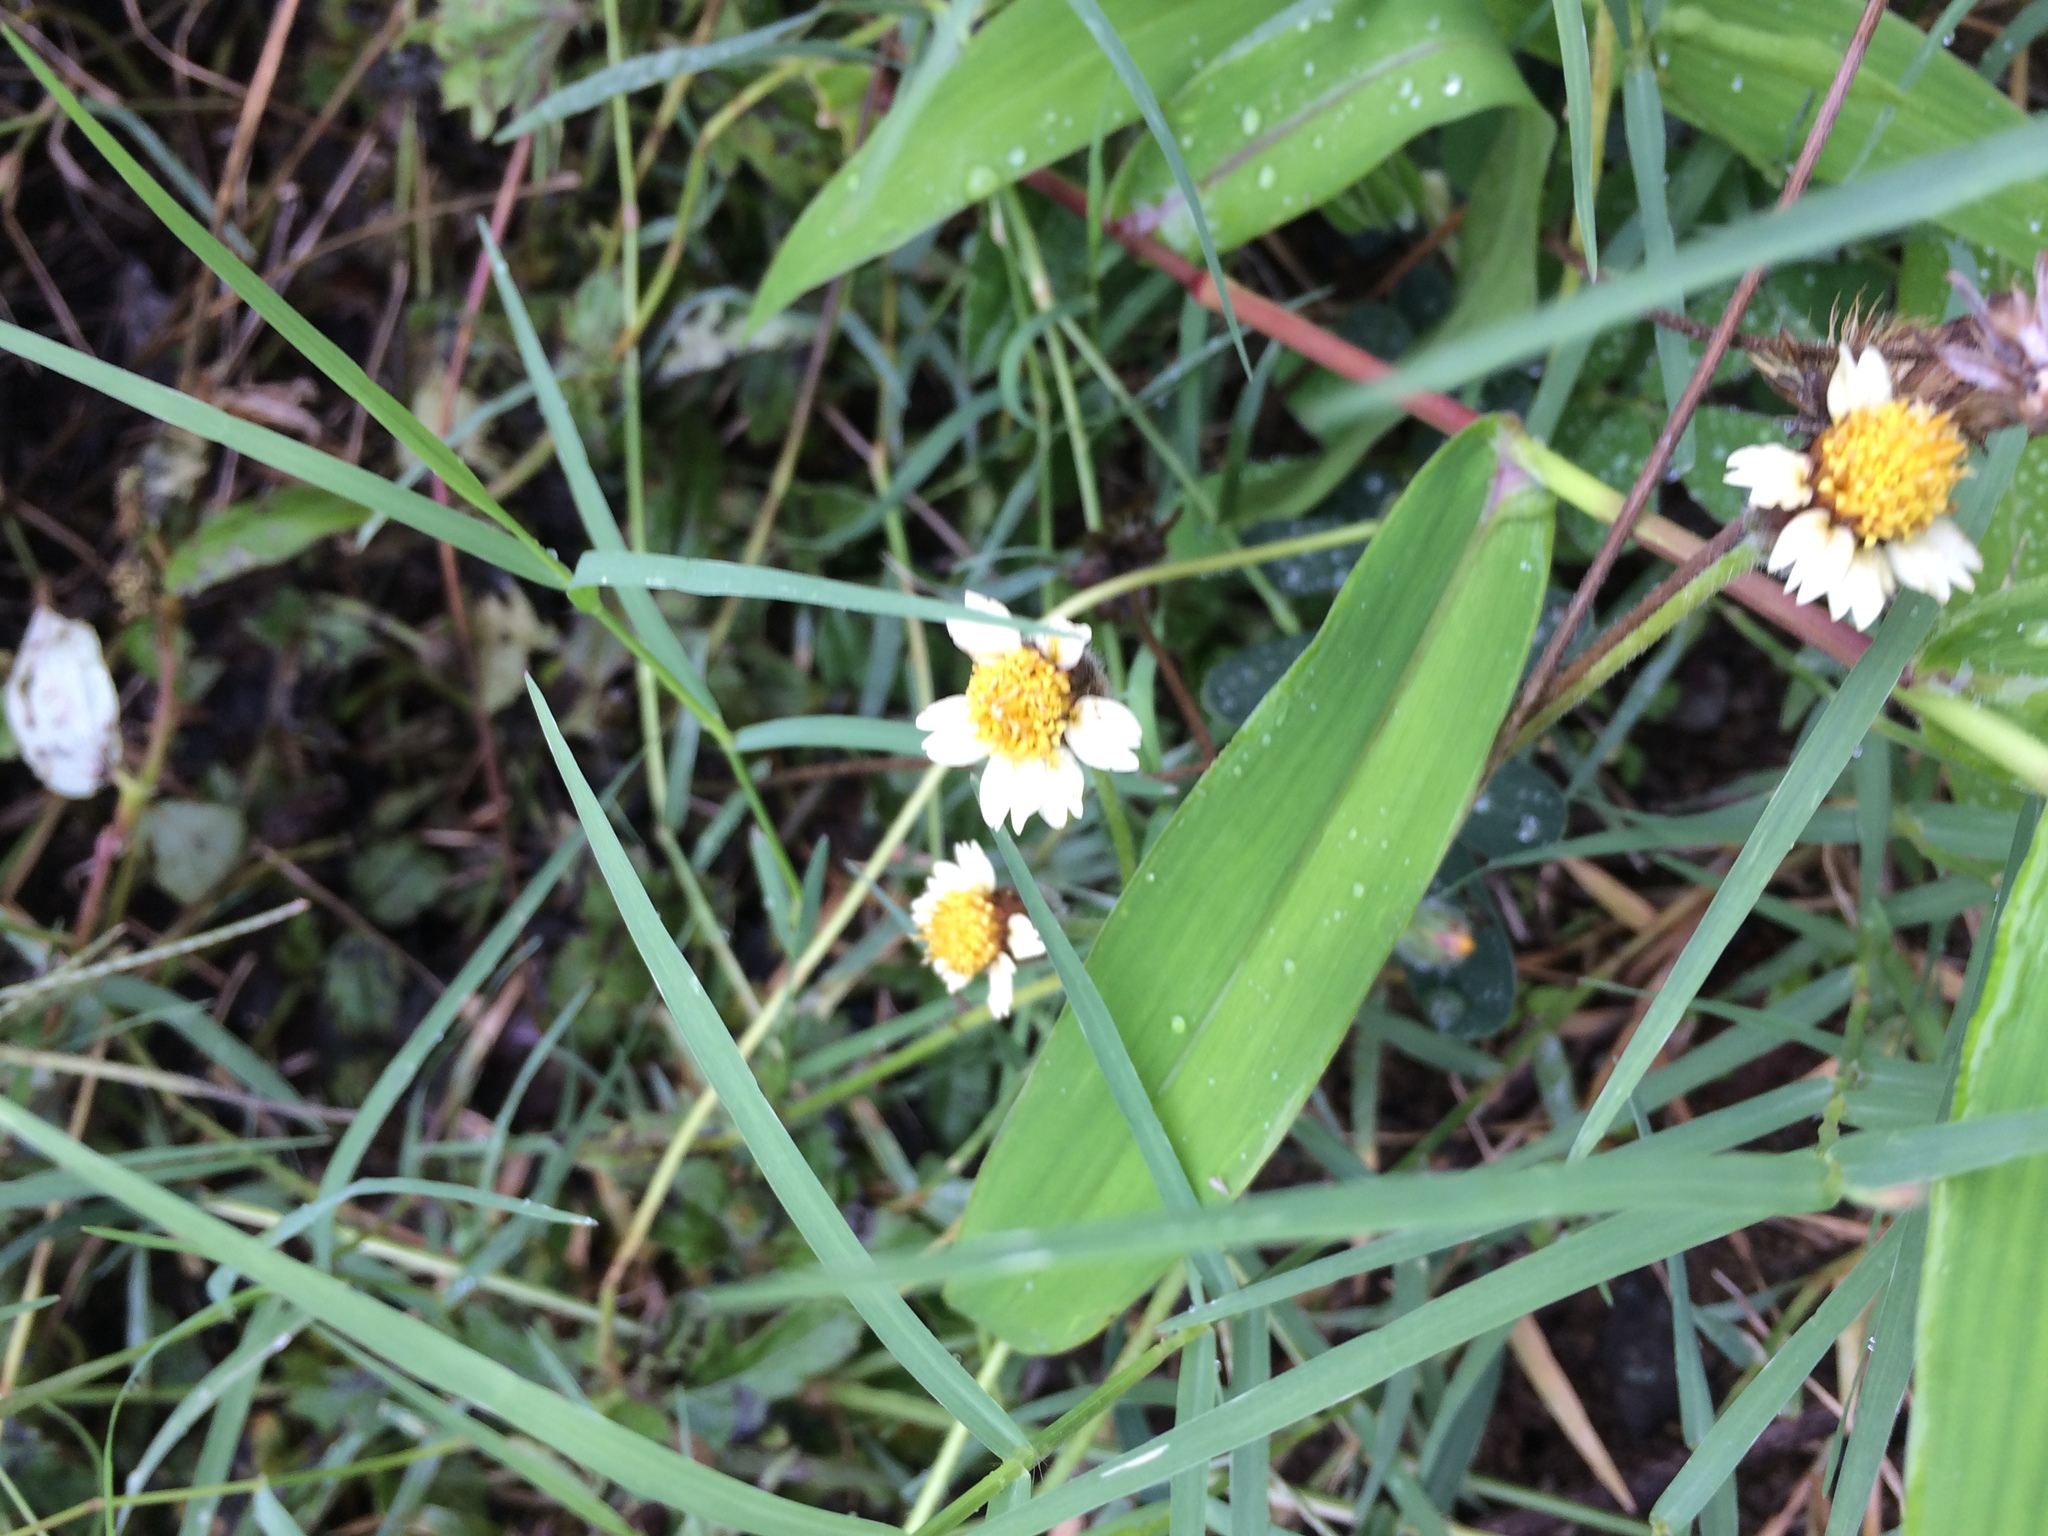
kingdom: Plantae
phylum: Tracheophyta
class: Magnoliopsida
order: Asterales
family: Asteraceae
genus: Tridax
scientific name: Tridax procumbens
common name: Coatbuttons
